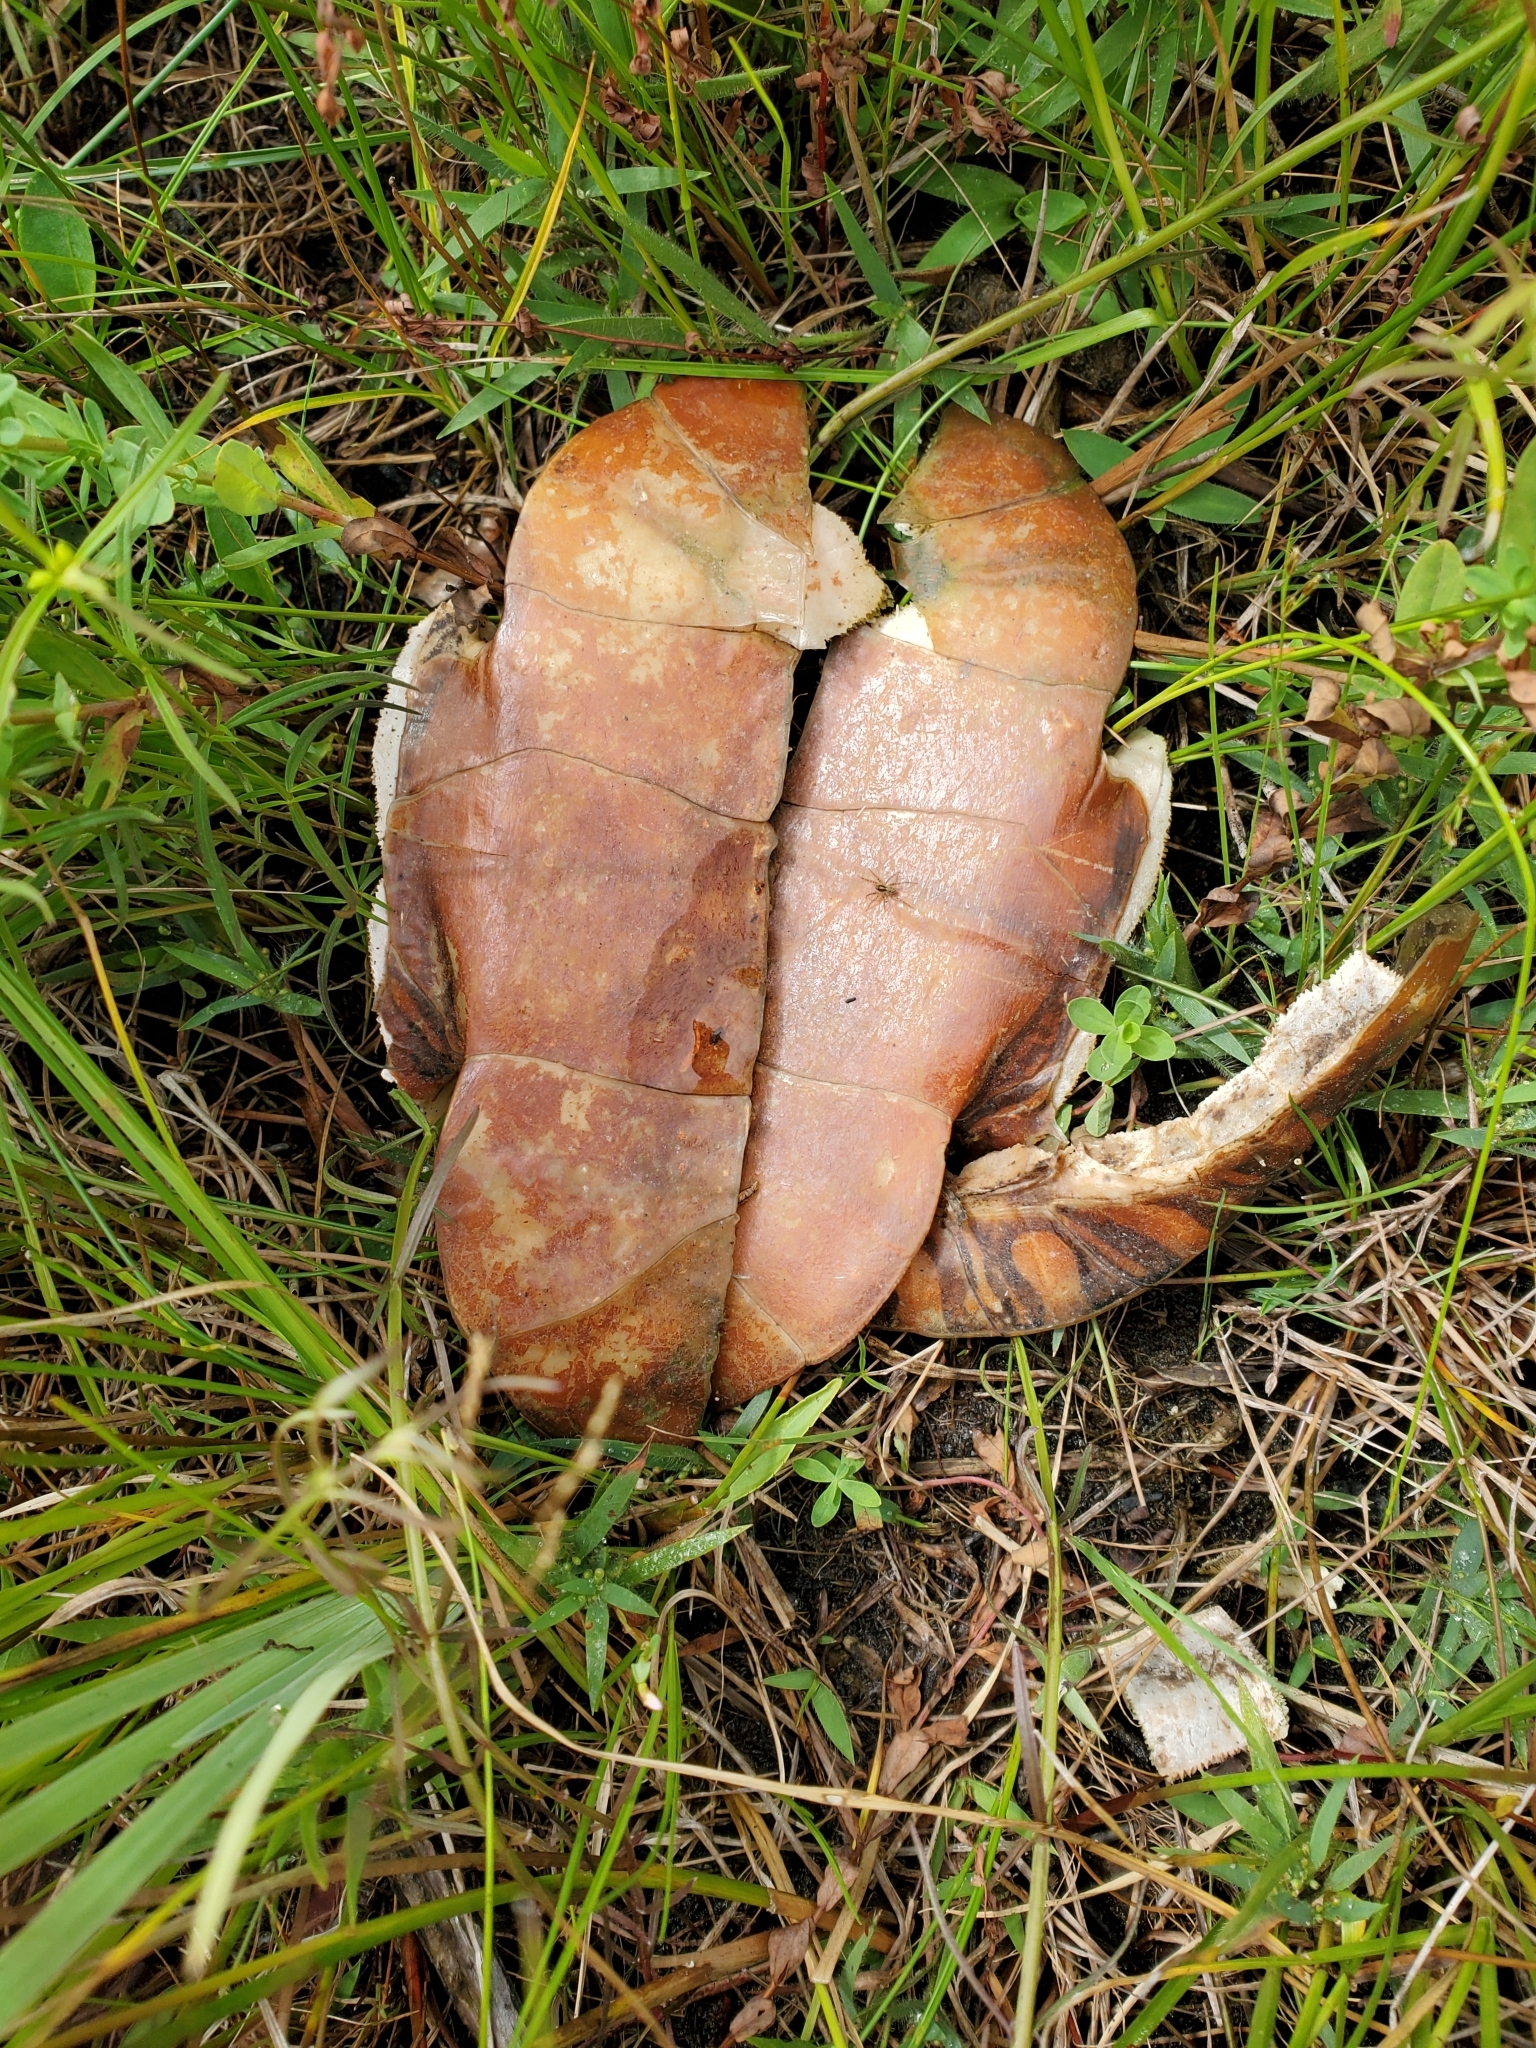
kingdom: Animalia
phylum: Chordata
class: Testudines
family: Emydidae
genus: Chrysemys
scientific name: Chrysemys picta
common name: Painted turtle
